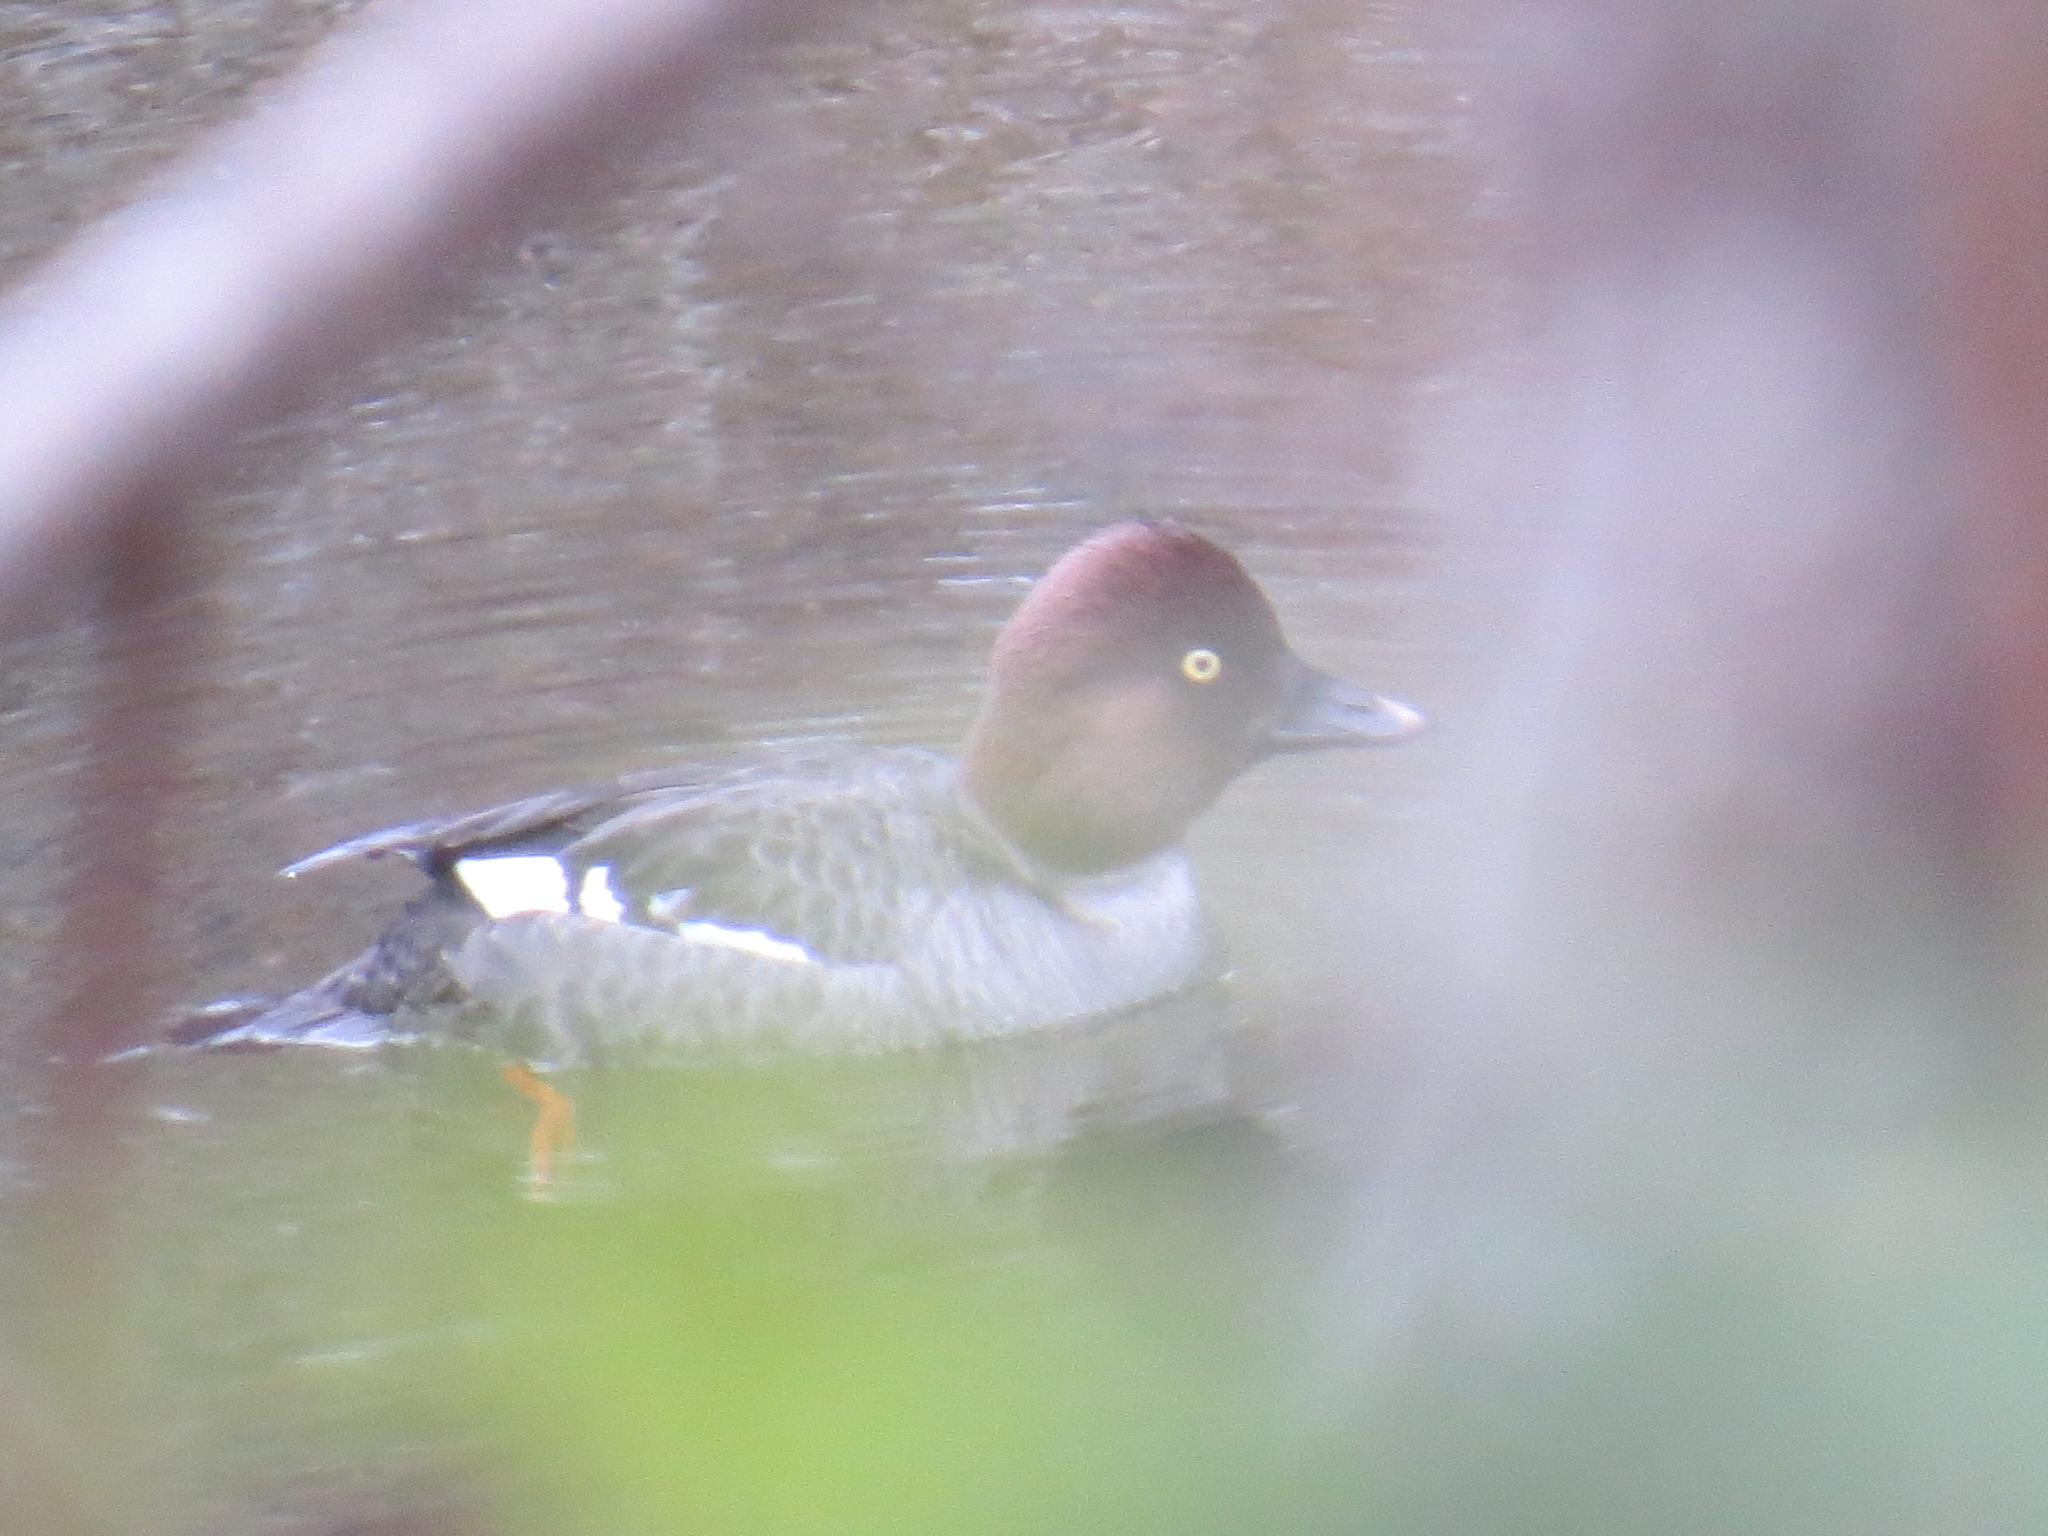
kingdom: Animalia
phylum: Chordata
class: Aves
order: Anseriformes
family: Anatidae
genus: Bucephala
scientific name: Bucephala clangula
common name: Common goldeneye
